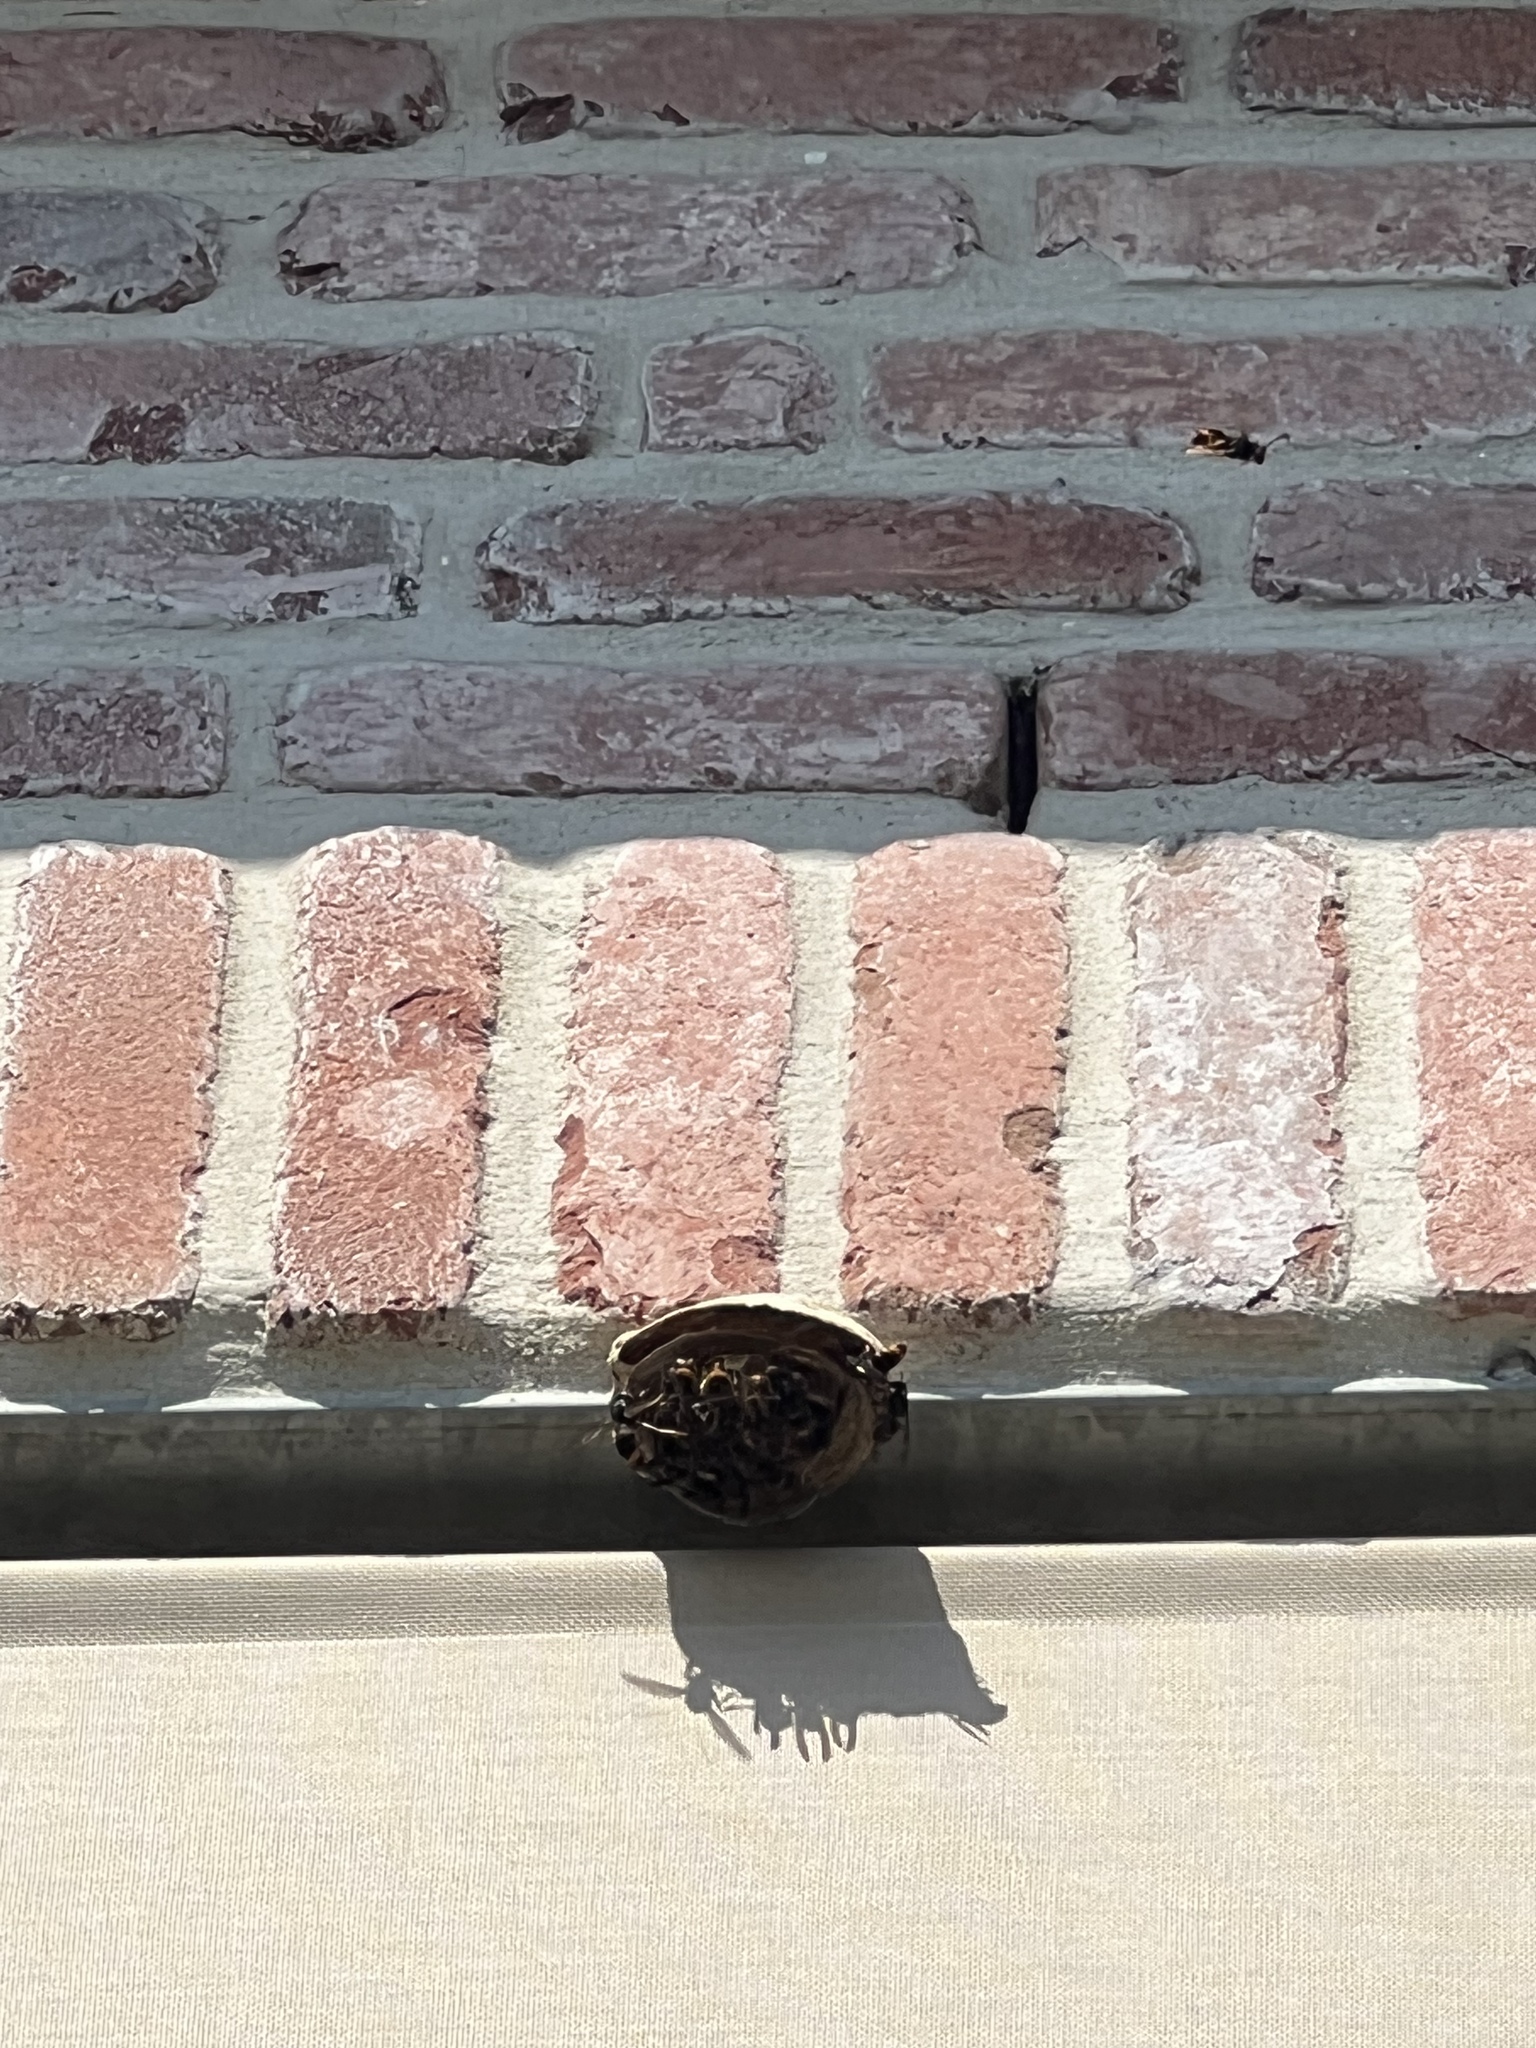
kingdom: Animalia
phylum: Arthropoda
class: Insecta
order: Hymenoptera
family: Vespidae
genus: Vespa
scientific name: Vespa velutina
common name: Asian hornet
